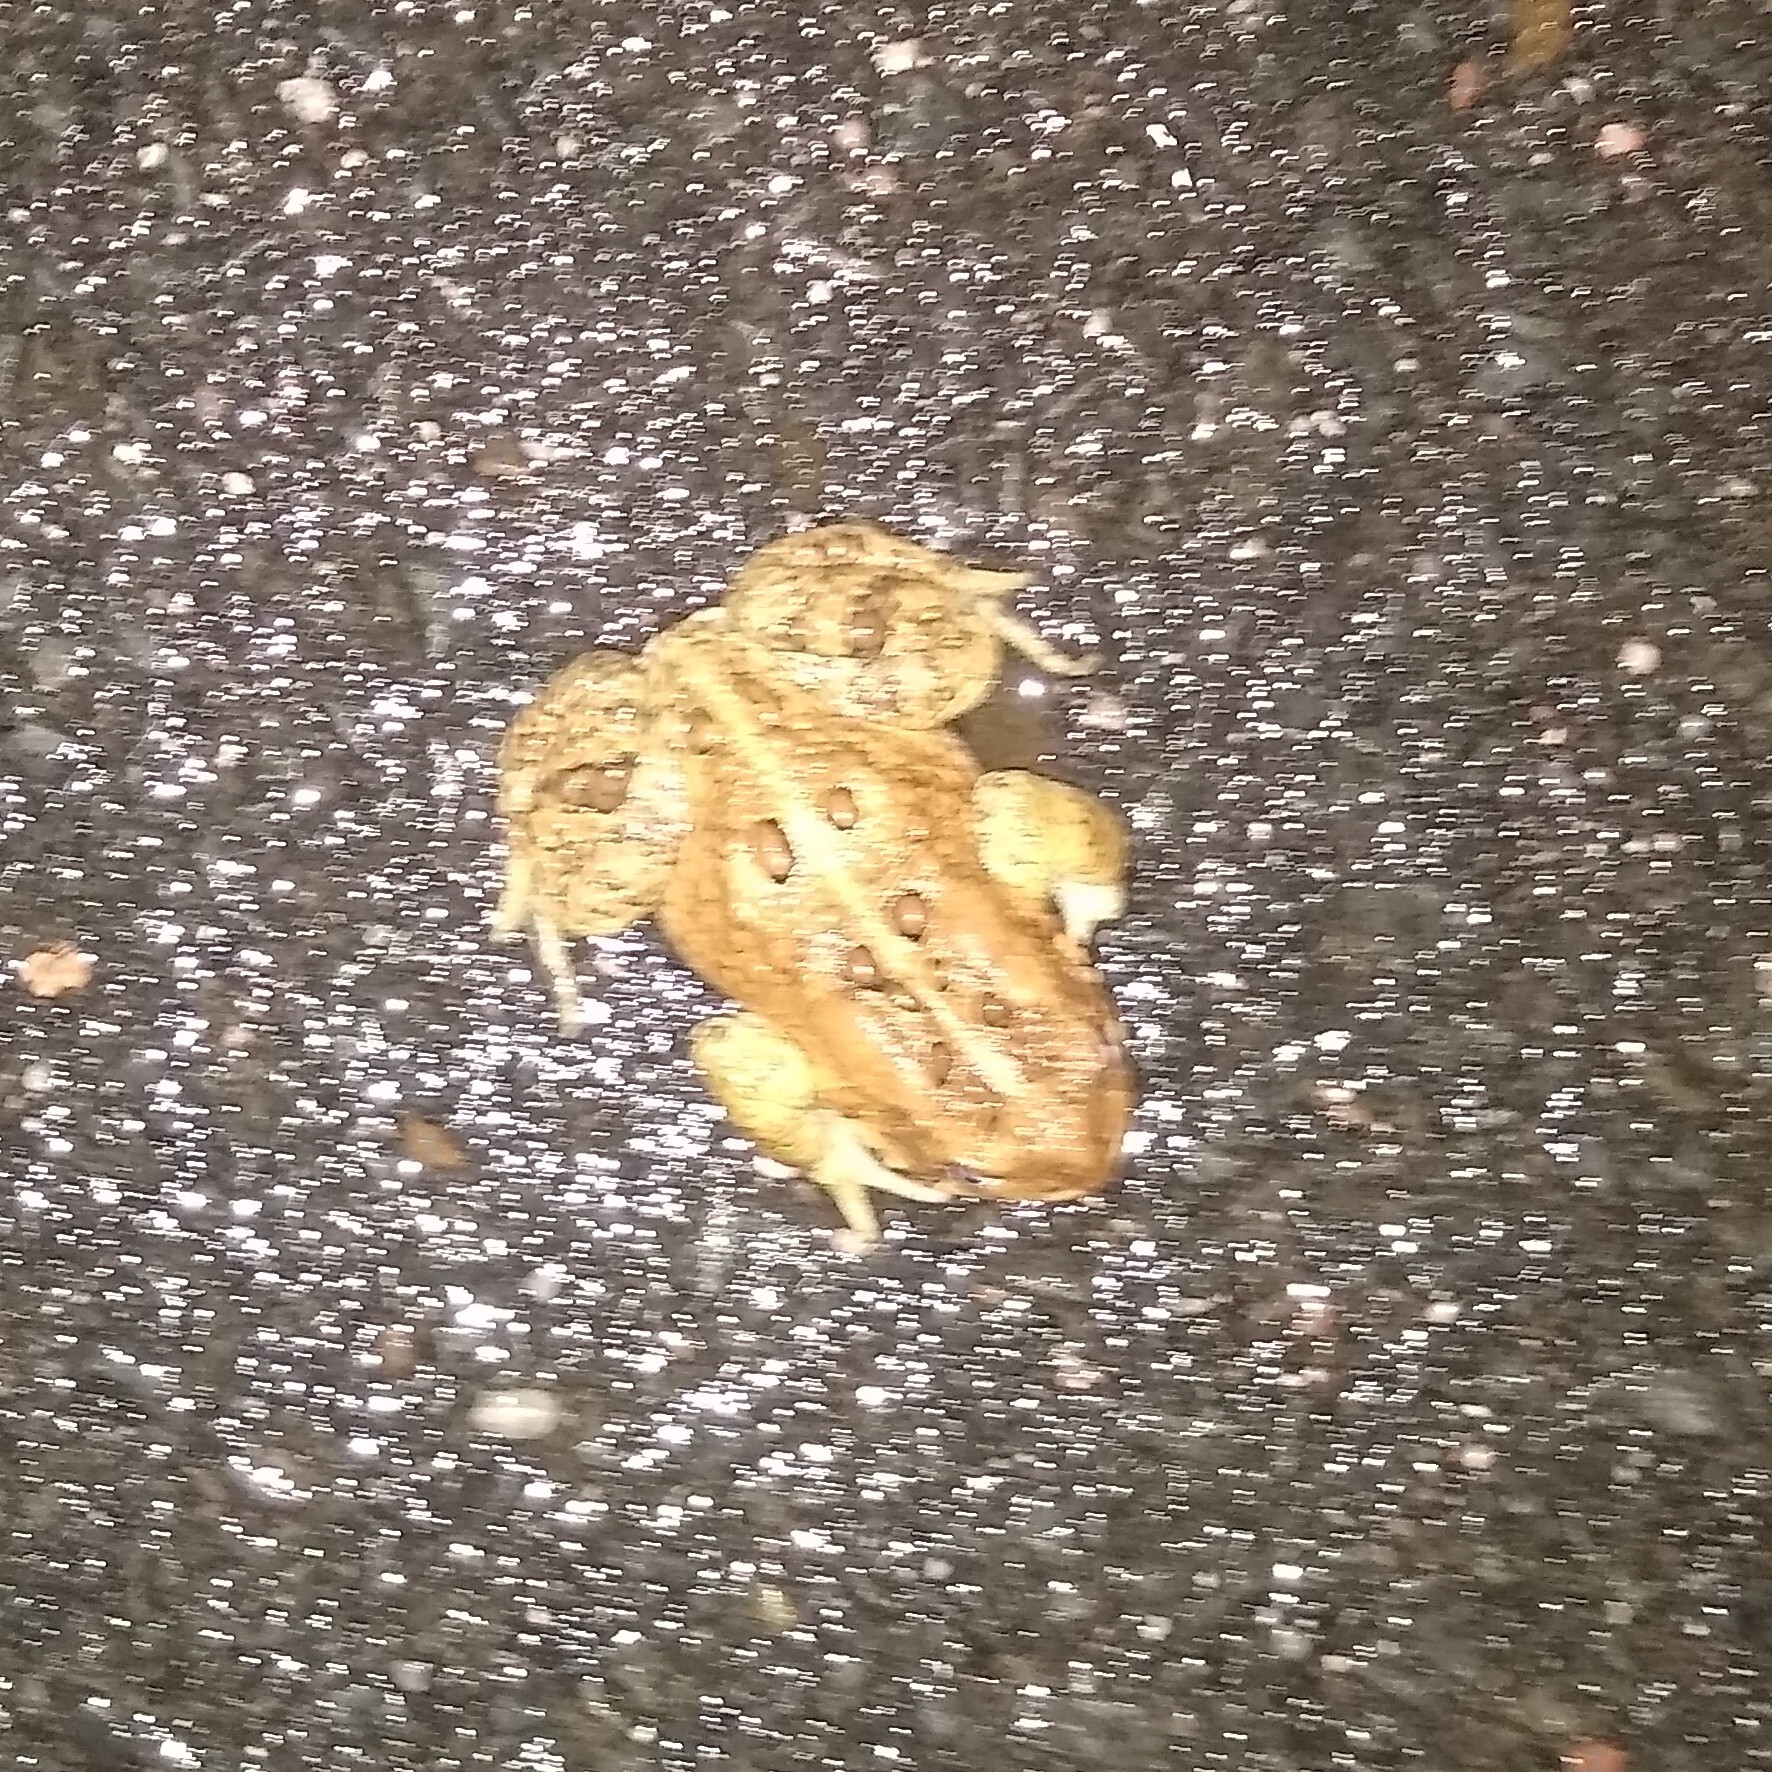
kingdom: Animalia
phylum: Chordata
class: Amphibia
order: Anura
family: Bufonidae
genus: Anaxyrus
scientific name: Anaxyrus americanus
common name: American toad
